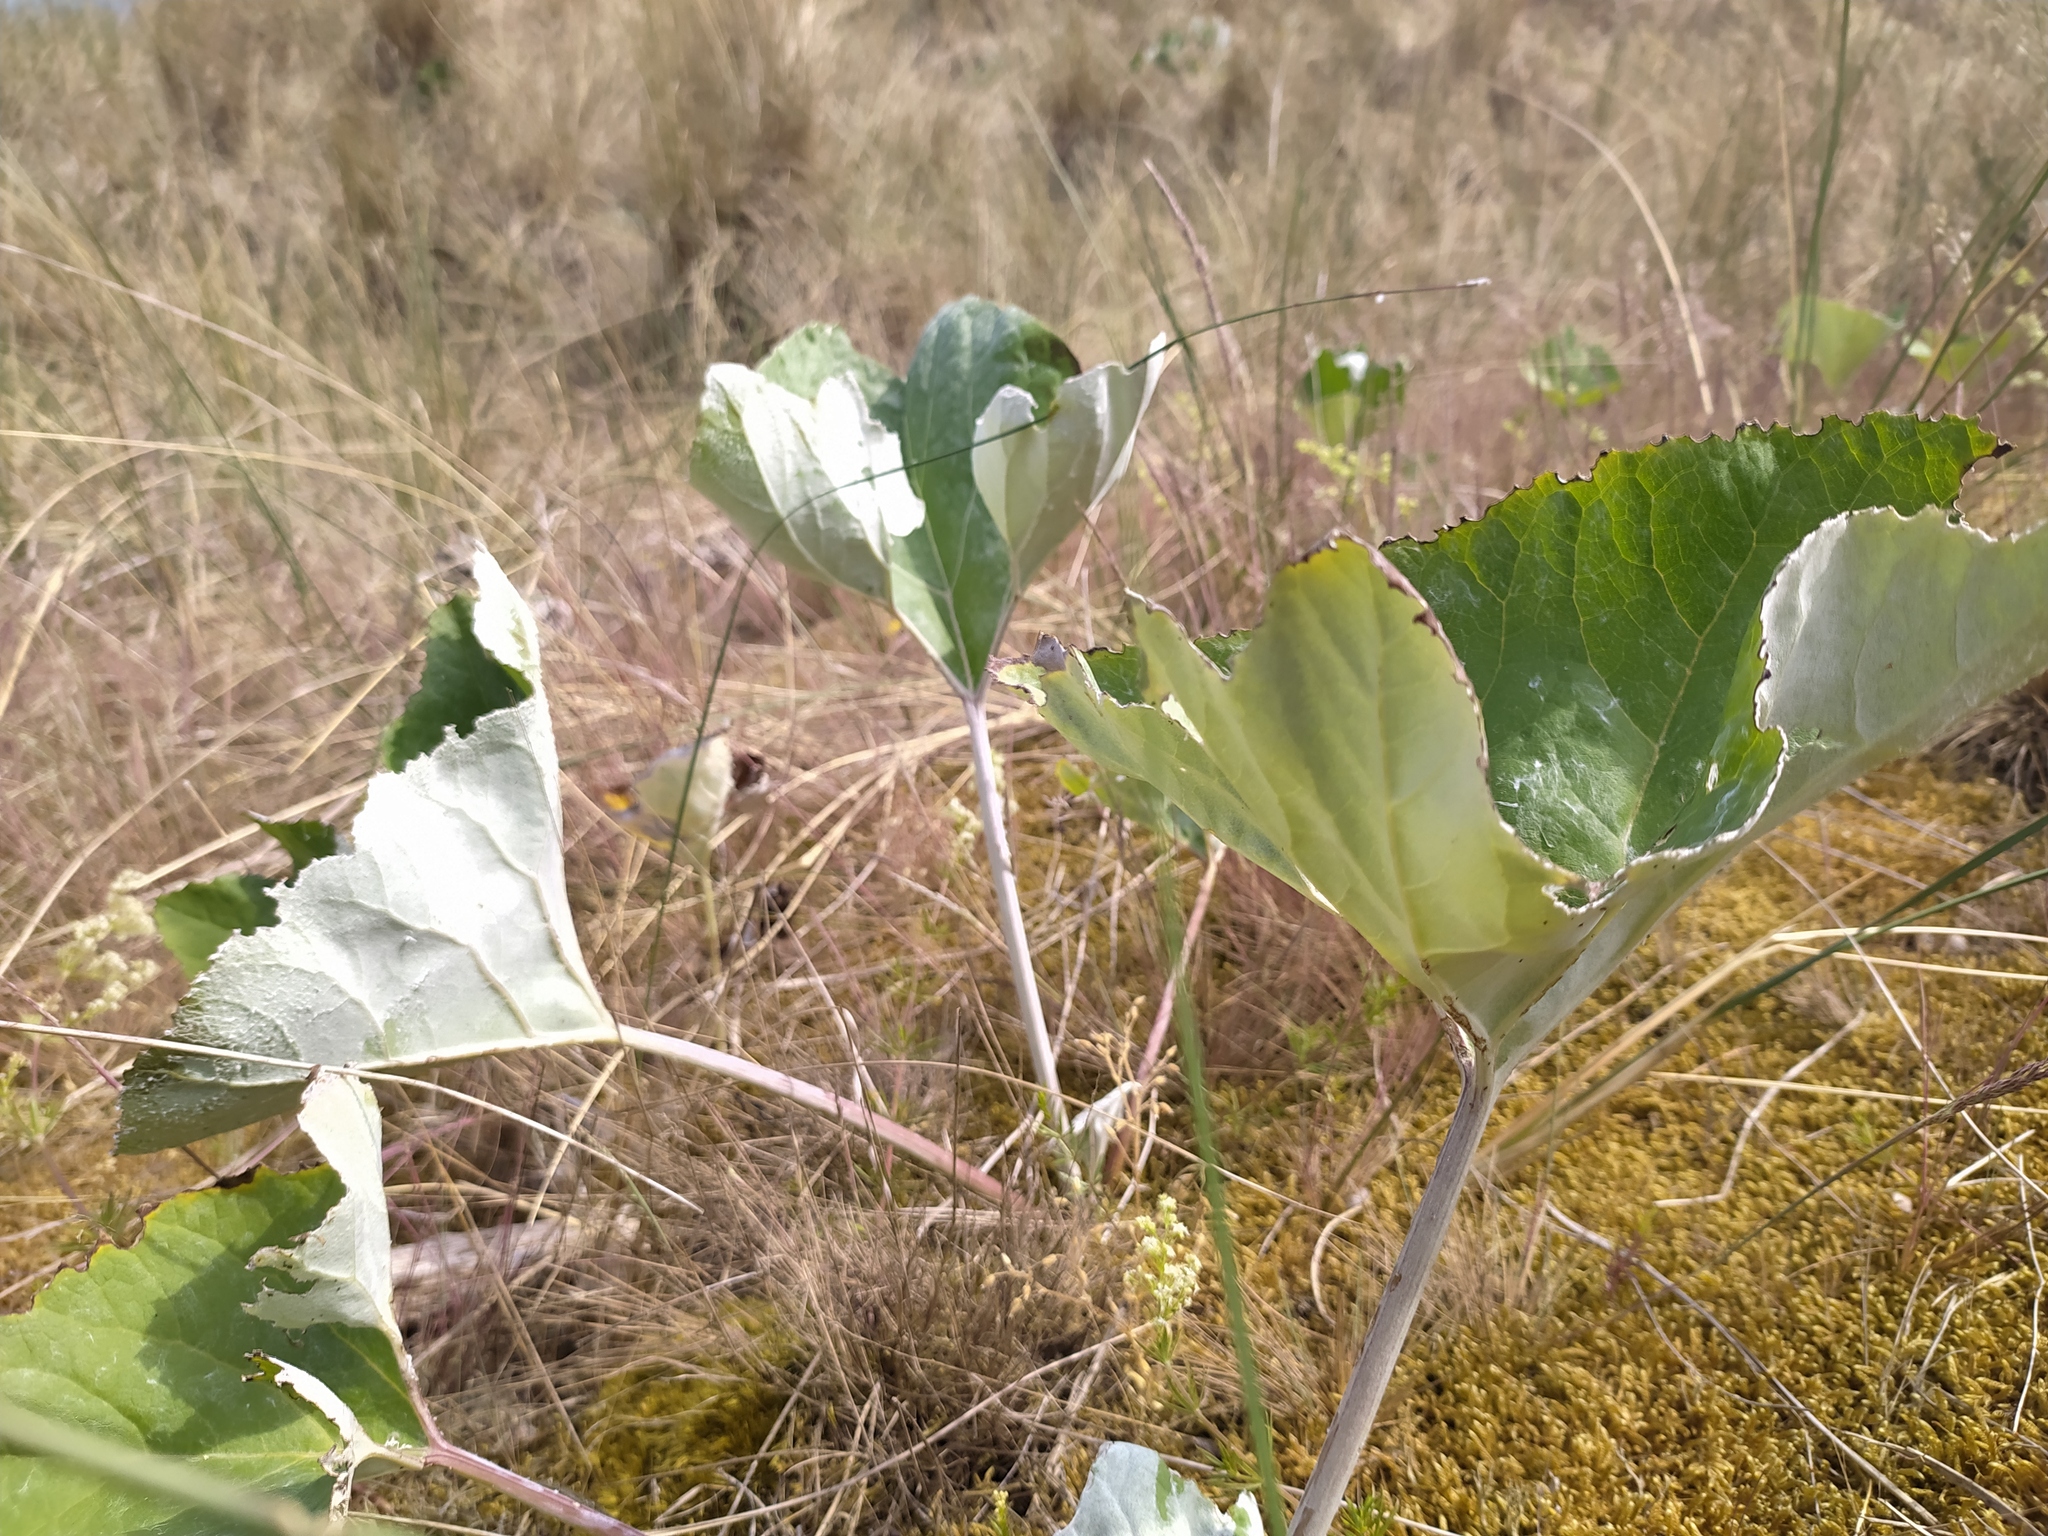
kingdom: Plantae
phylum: Tracheophyta
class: Magnoliopsida
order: Asterales
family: Asteraceae
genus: Petasites
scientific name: Petasites spurius
